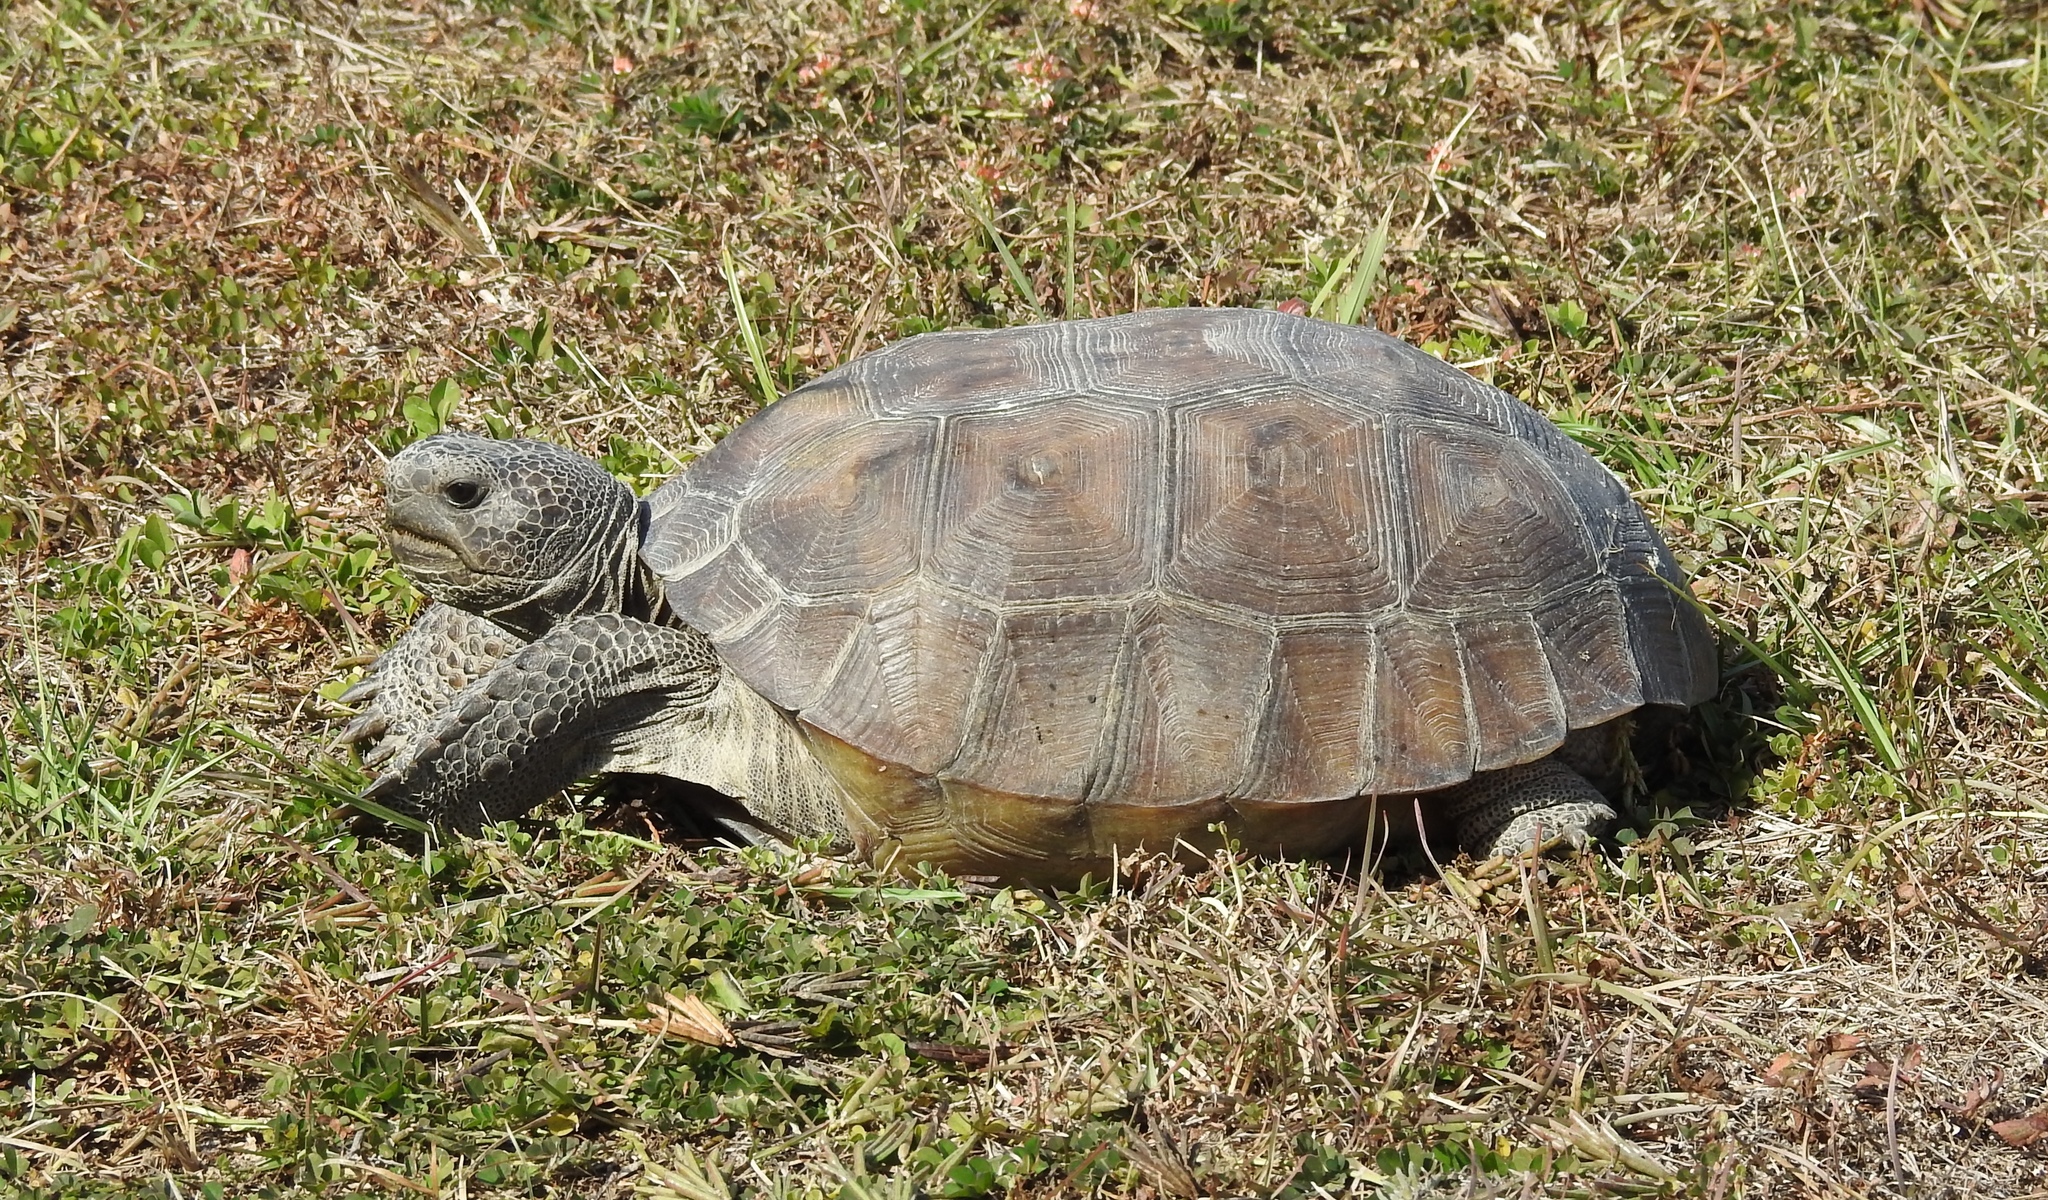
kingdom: Animalia
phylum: Chordata
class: Testudines
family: Testudinidae
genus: Gopherus
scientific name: Gopherus polyphemus
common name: Florida gopher tortoise
